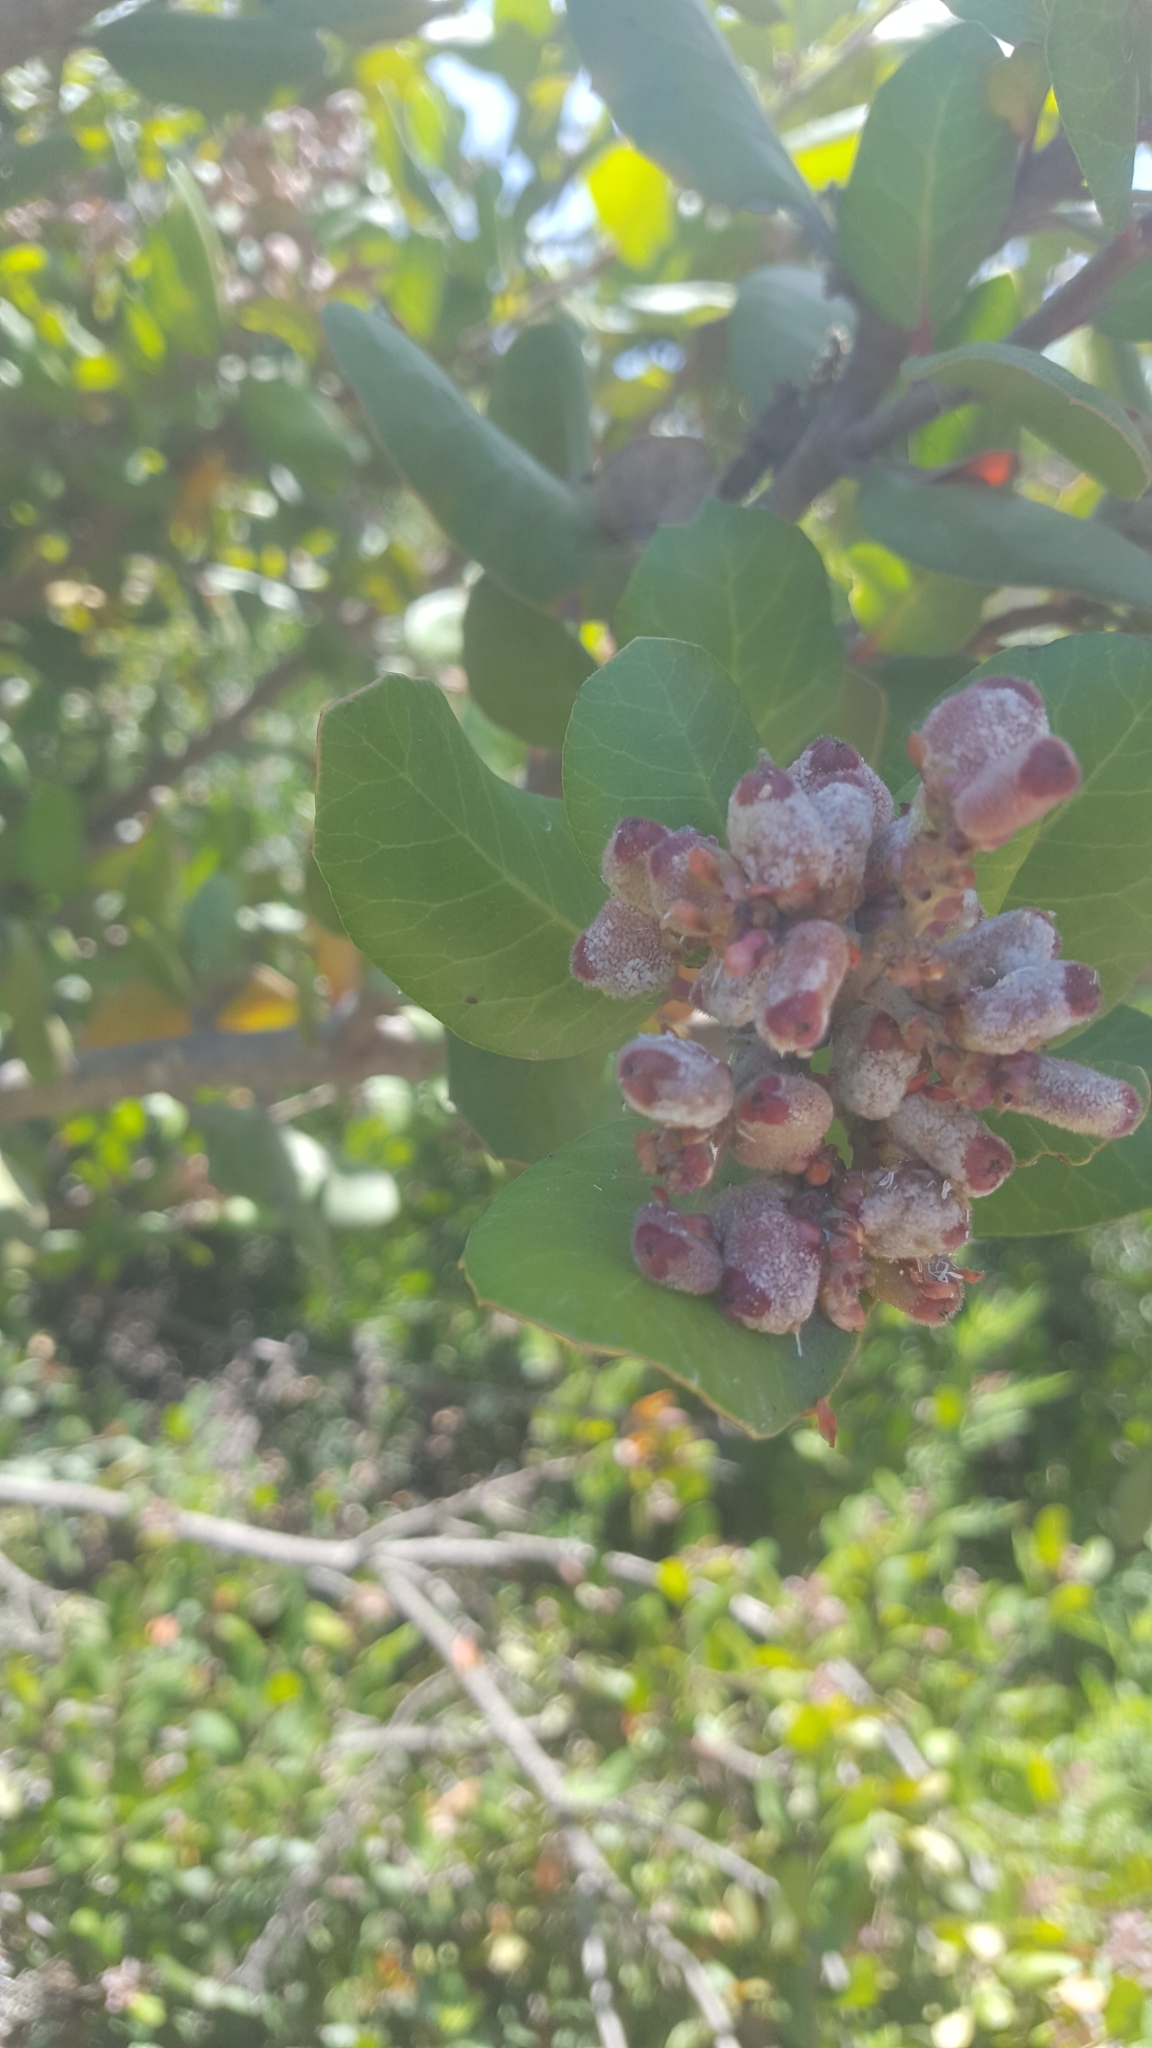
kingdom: Plantae
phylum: Tracheophyta
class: Magnoliopsida
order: Sapindales
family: Anacardiaceae
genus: Rhus
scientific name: Rhus integrifolia
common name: Lemonade sumac
